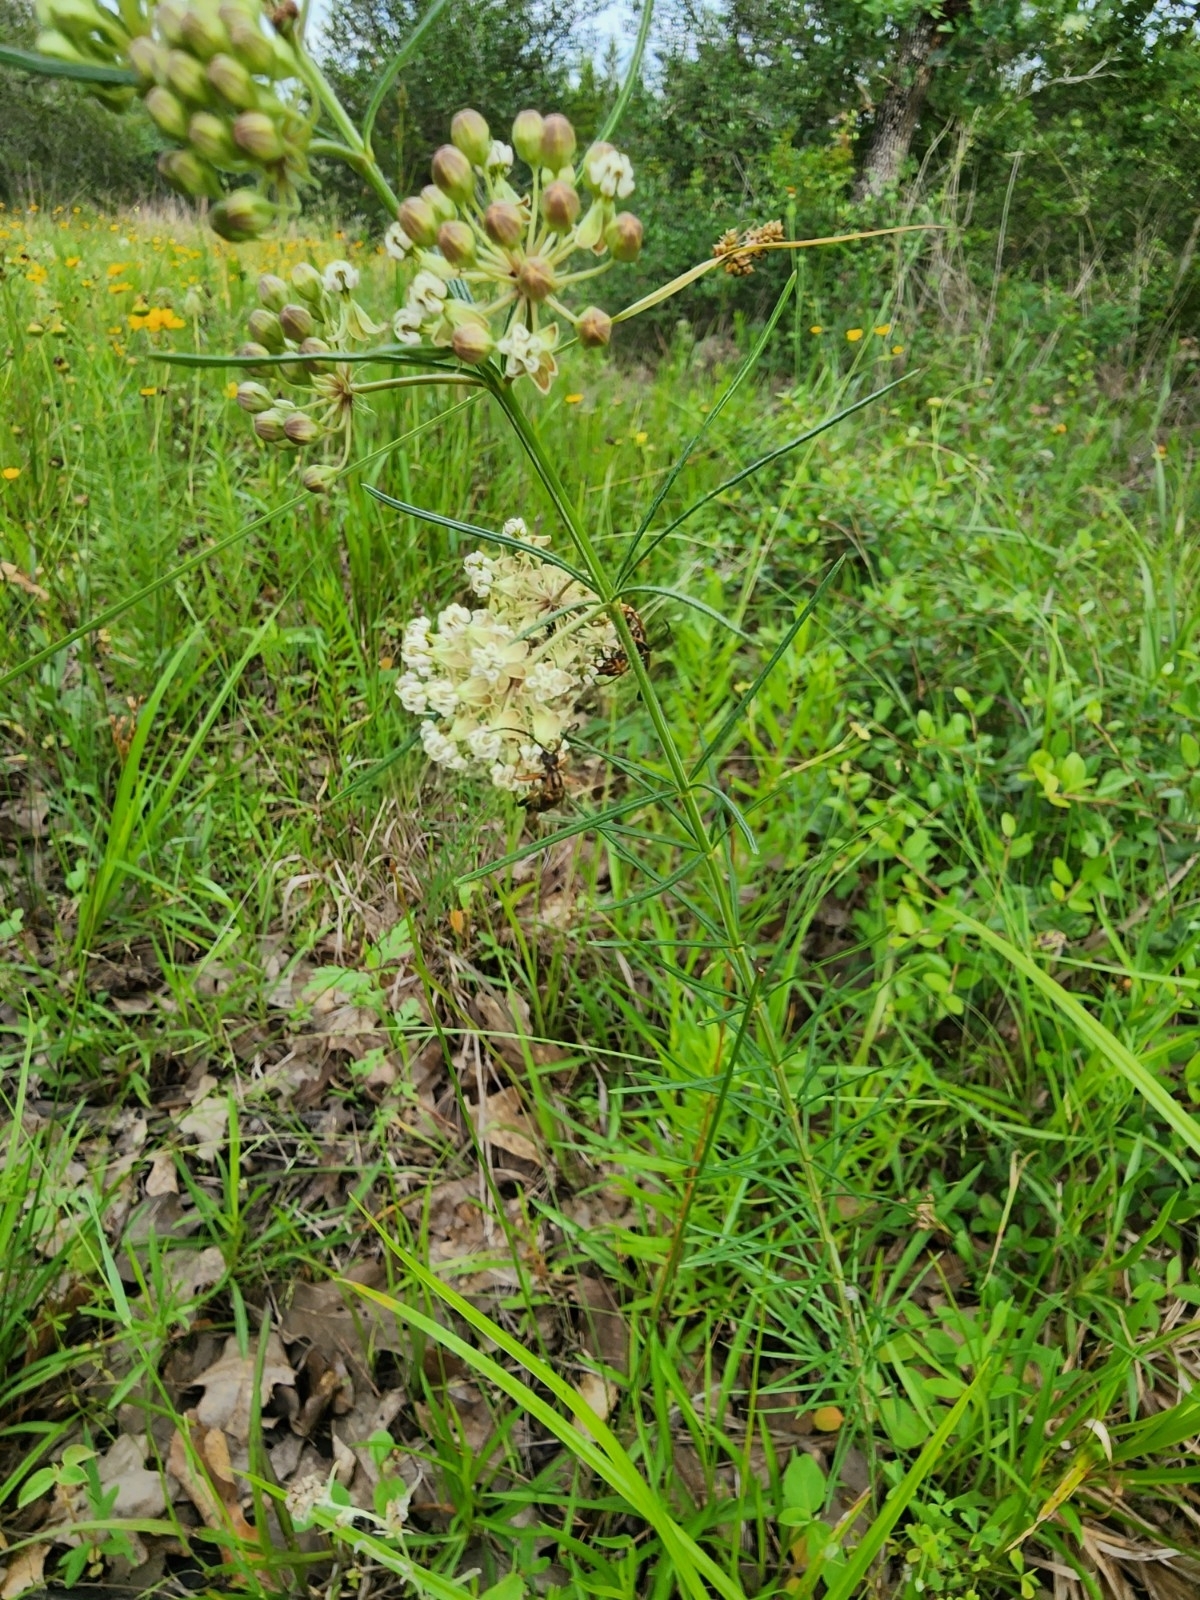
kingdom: Plantae
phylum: Tracheophyta
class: Magnoliopsida
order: Gentianales
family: Apocynaceae
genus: Asclepias
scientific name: Asclepias verticillata
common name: Eastern whorled milkweed
